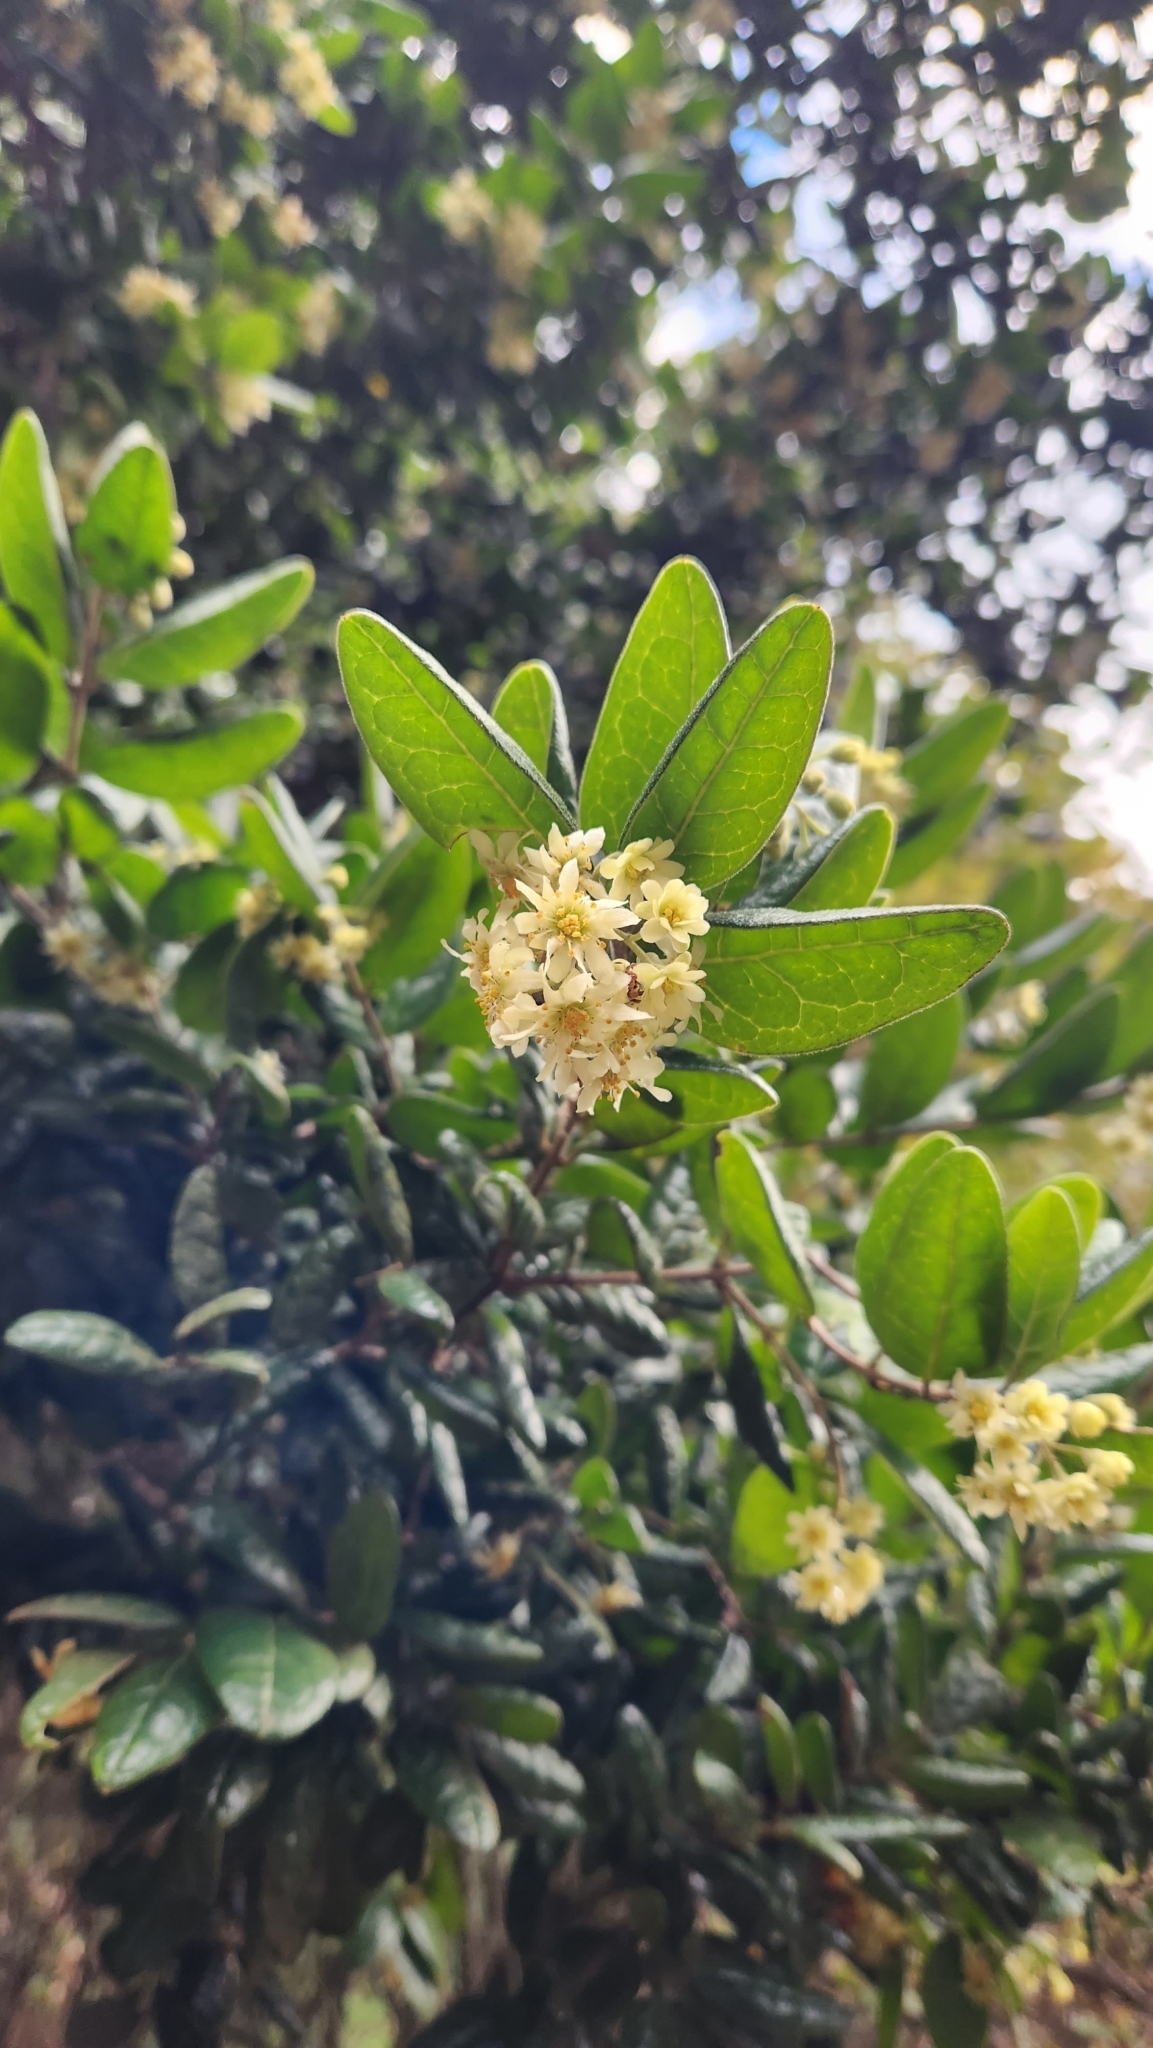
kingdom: Plantae
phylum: Tracheophyta
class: Magnoliopsida
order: Laurales
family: Monimiaceae
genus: Peumus
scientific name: Peumus boldus
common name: Boldo
